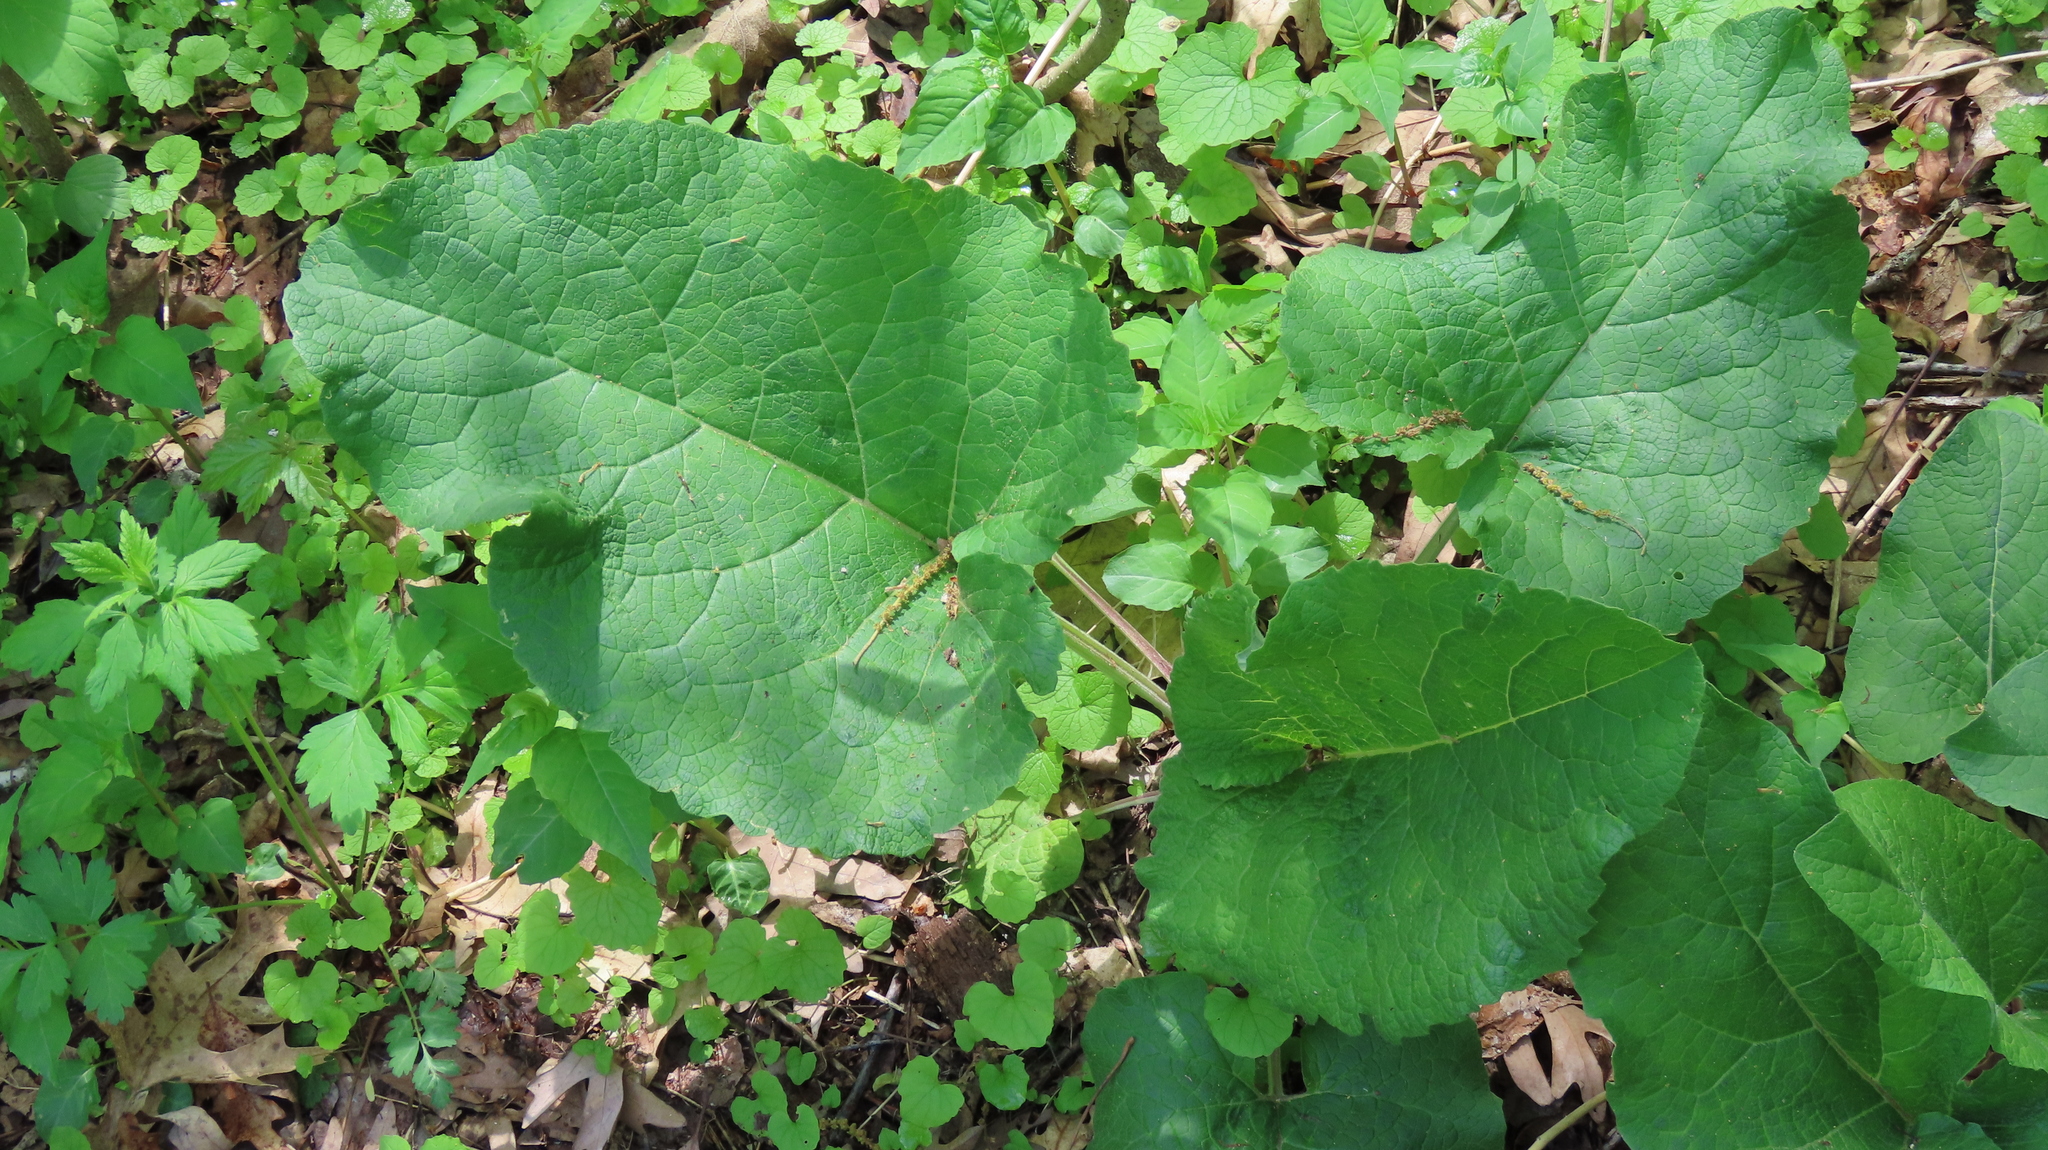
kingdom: Plantae
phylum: Tracheophyta
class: Magnoliopsida
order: Asterales
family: Asteraceae
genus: Arctium
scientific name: Arctium
